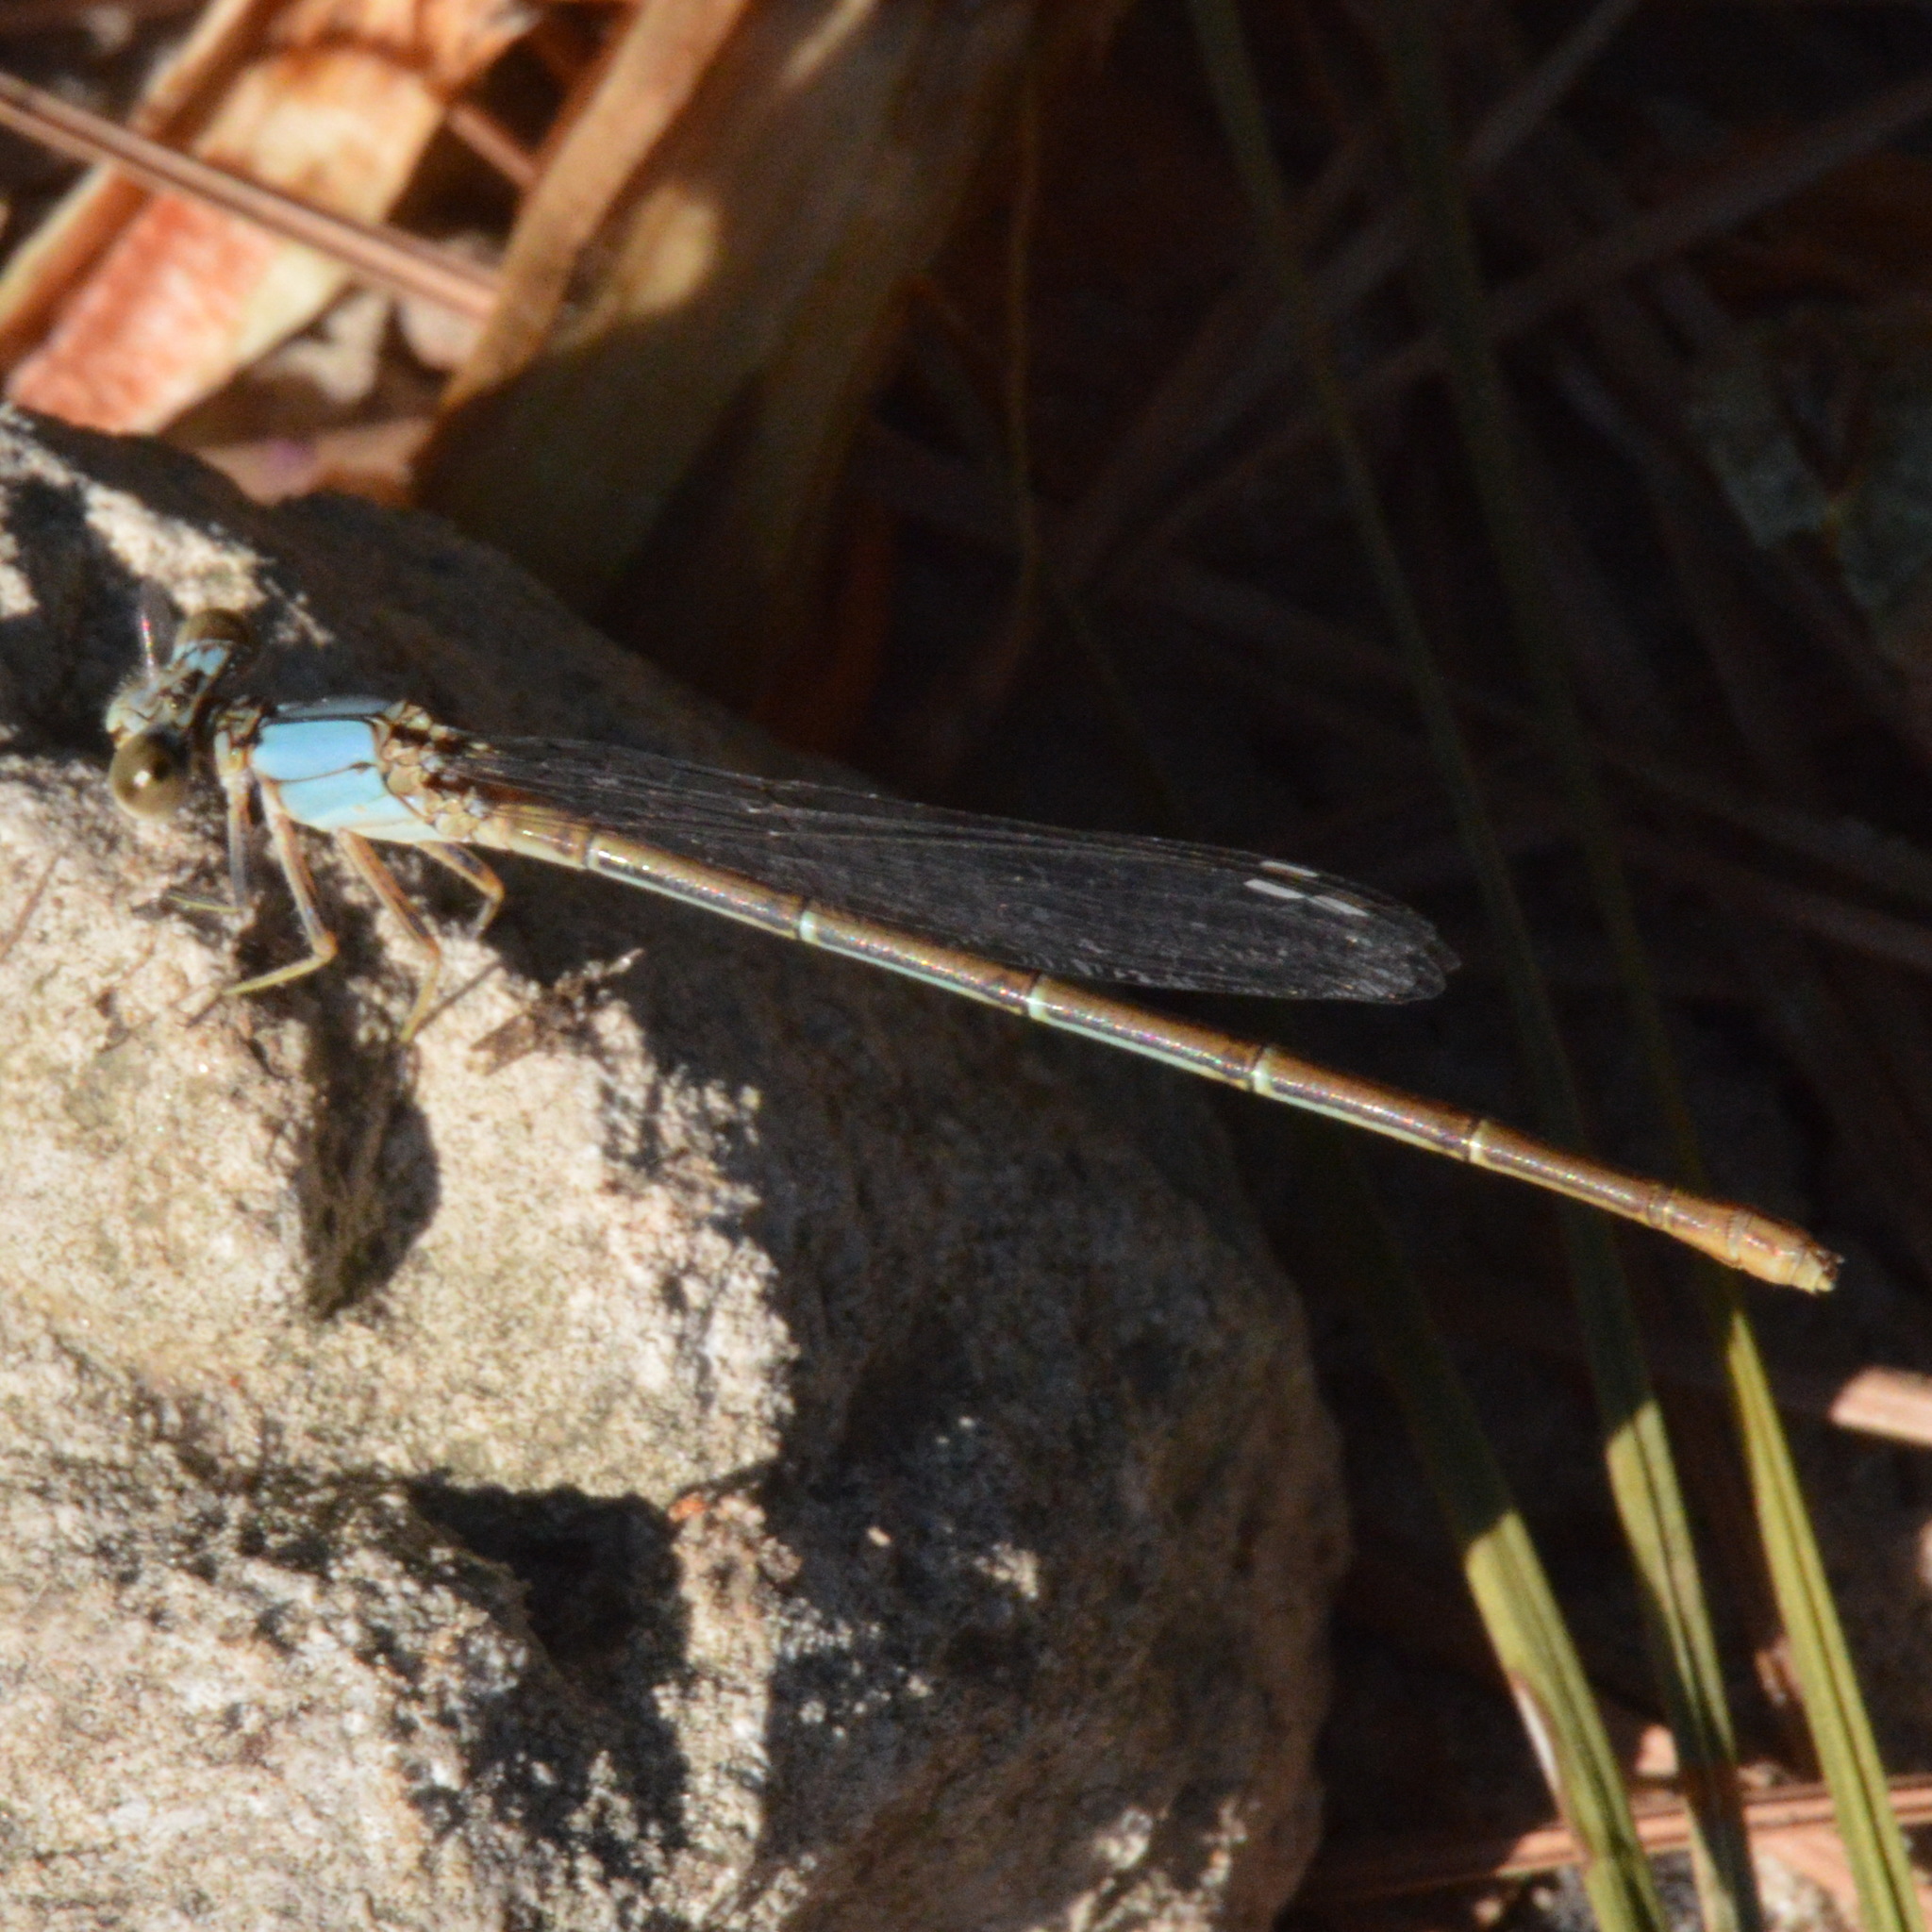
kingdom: Animalia
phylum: Arthropoda
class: Insecta
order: Odonata
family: Coenagrionidae
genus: Argia
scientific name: Argia moesta
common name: Powdered dancer
